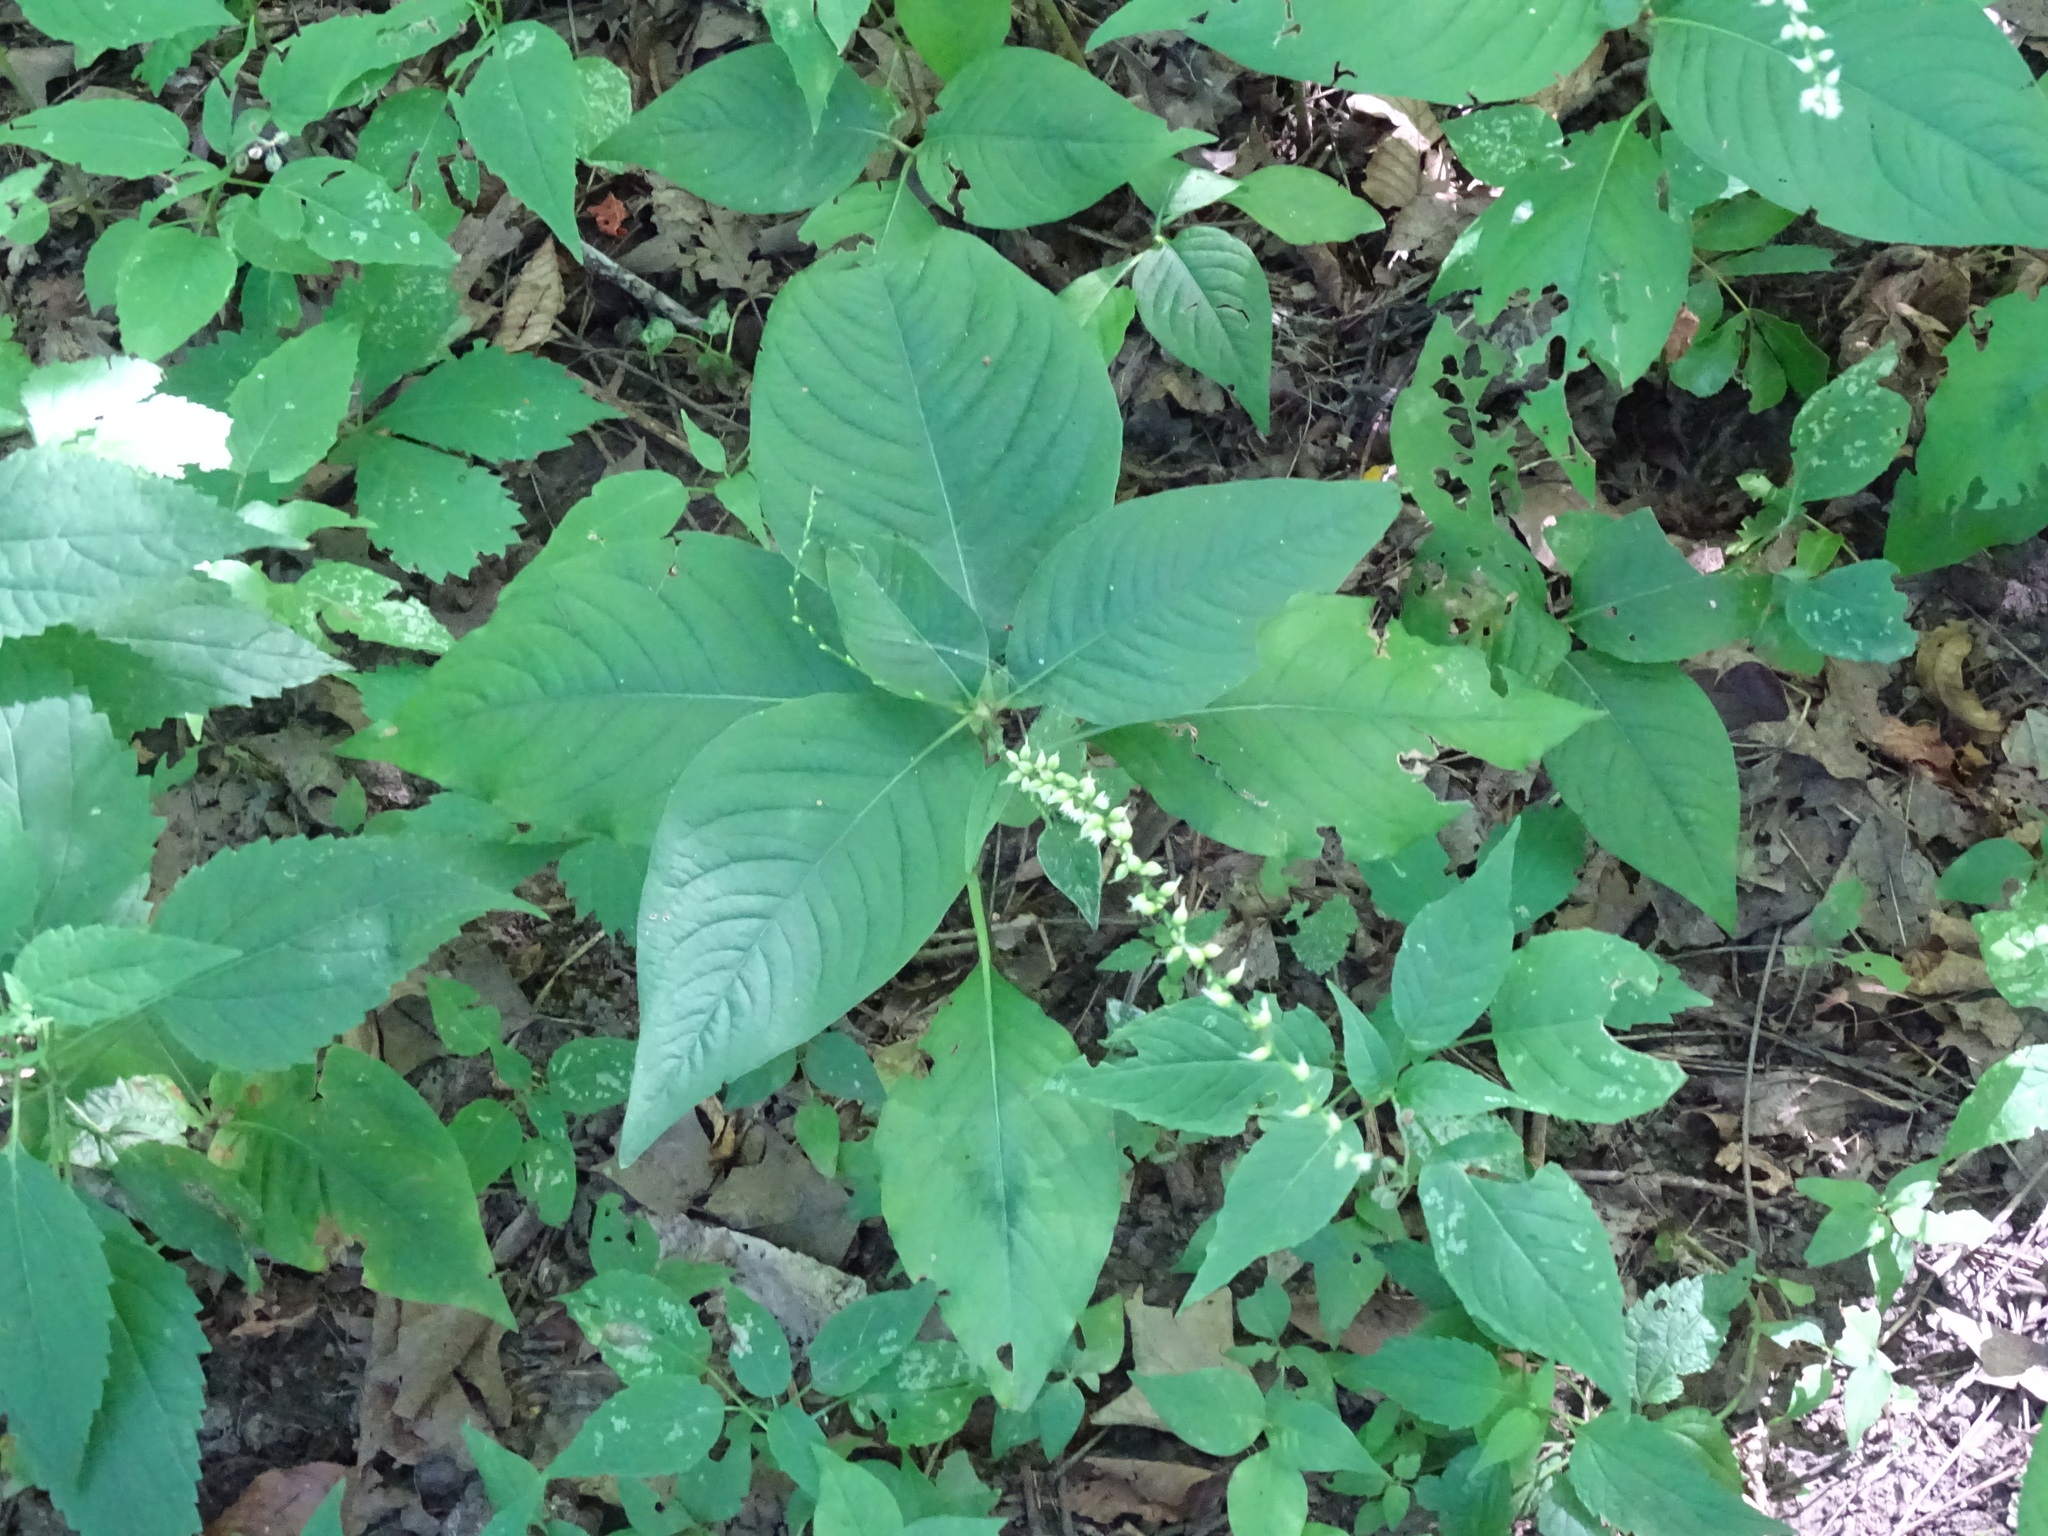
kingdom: Plantae
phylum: Tracheophyta
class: Magnoliopsida
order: Caryophyllales
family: Polygonaceae
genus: Persicaria
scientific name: Persicaria virginiana
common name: Jumpseed
